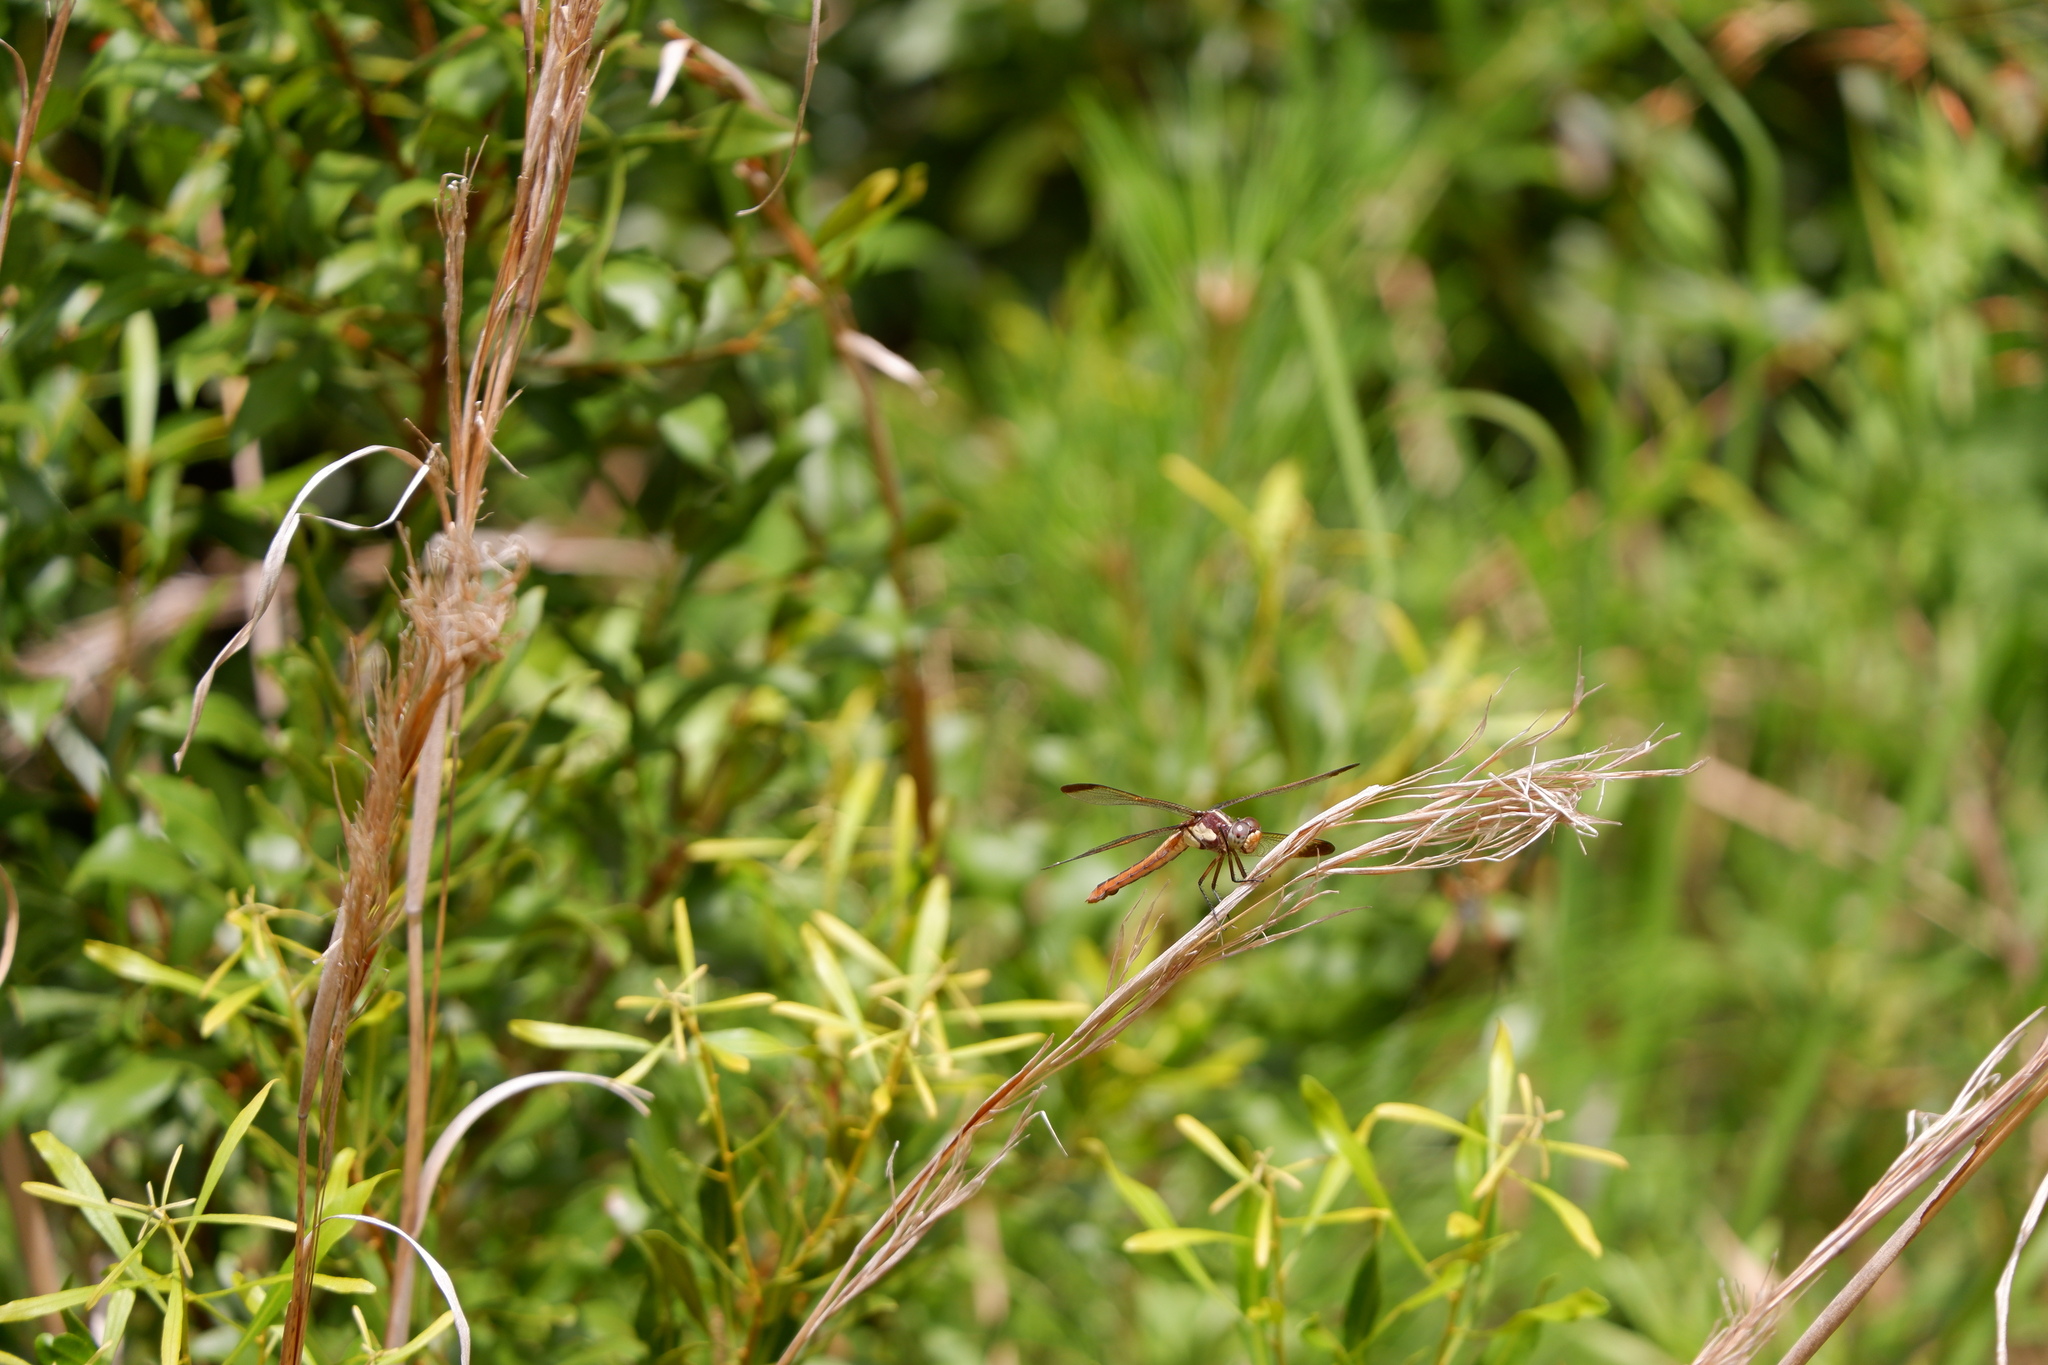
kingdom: Animalia
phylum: Arthropoda
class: Insecta
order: Odonata
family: Libellulidae
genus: Libellula
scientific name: Libellula flavida
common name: Yellow-sided skimmer
